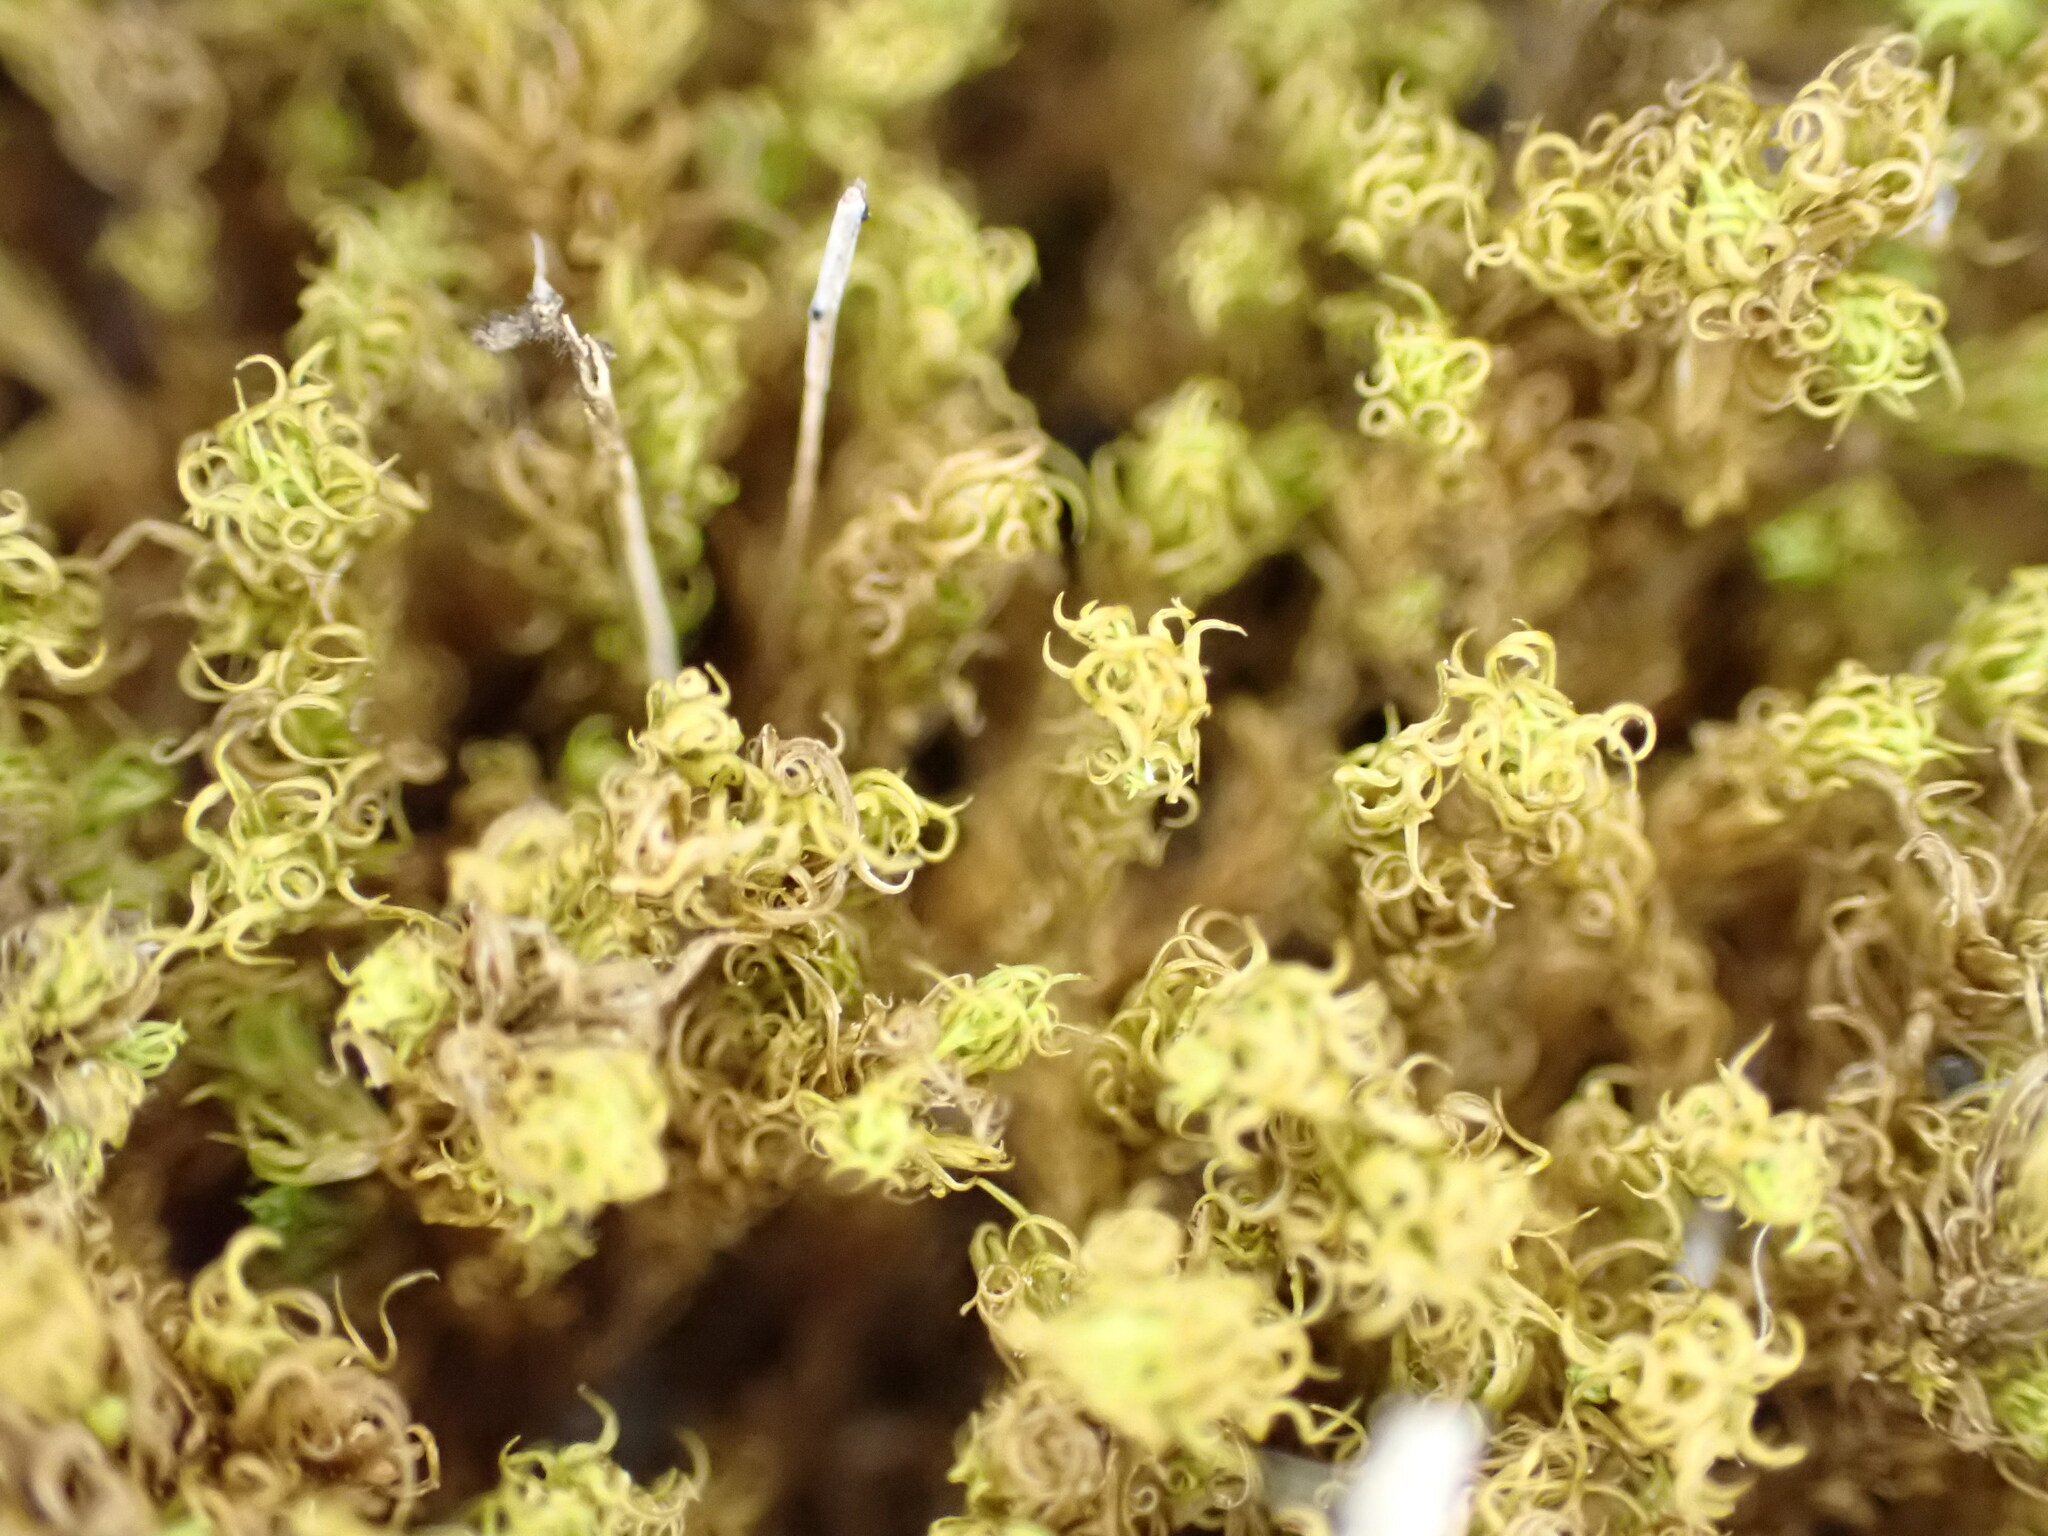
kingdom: Plantae
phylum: Bryophyta
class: Bryopsida
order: Pottiales
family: Pottiaceae
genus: Pleurochaete
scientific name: Pleurochaete squarrosa
